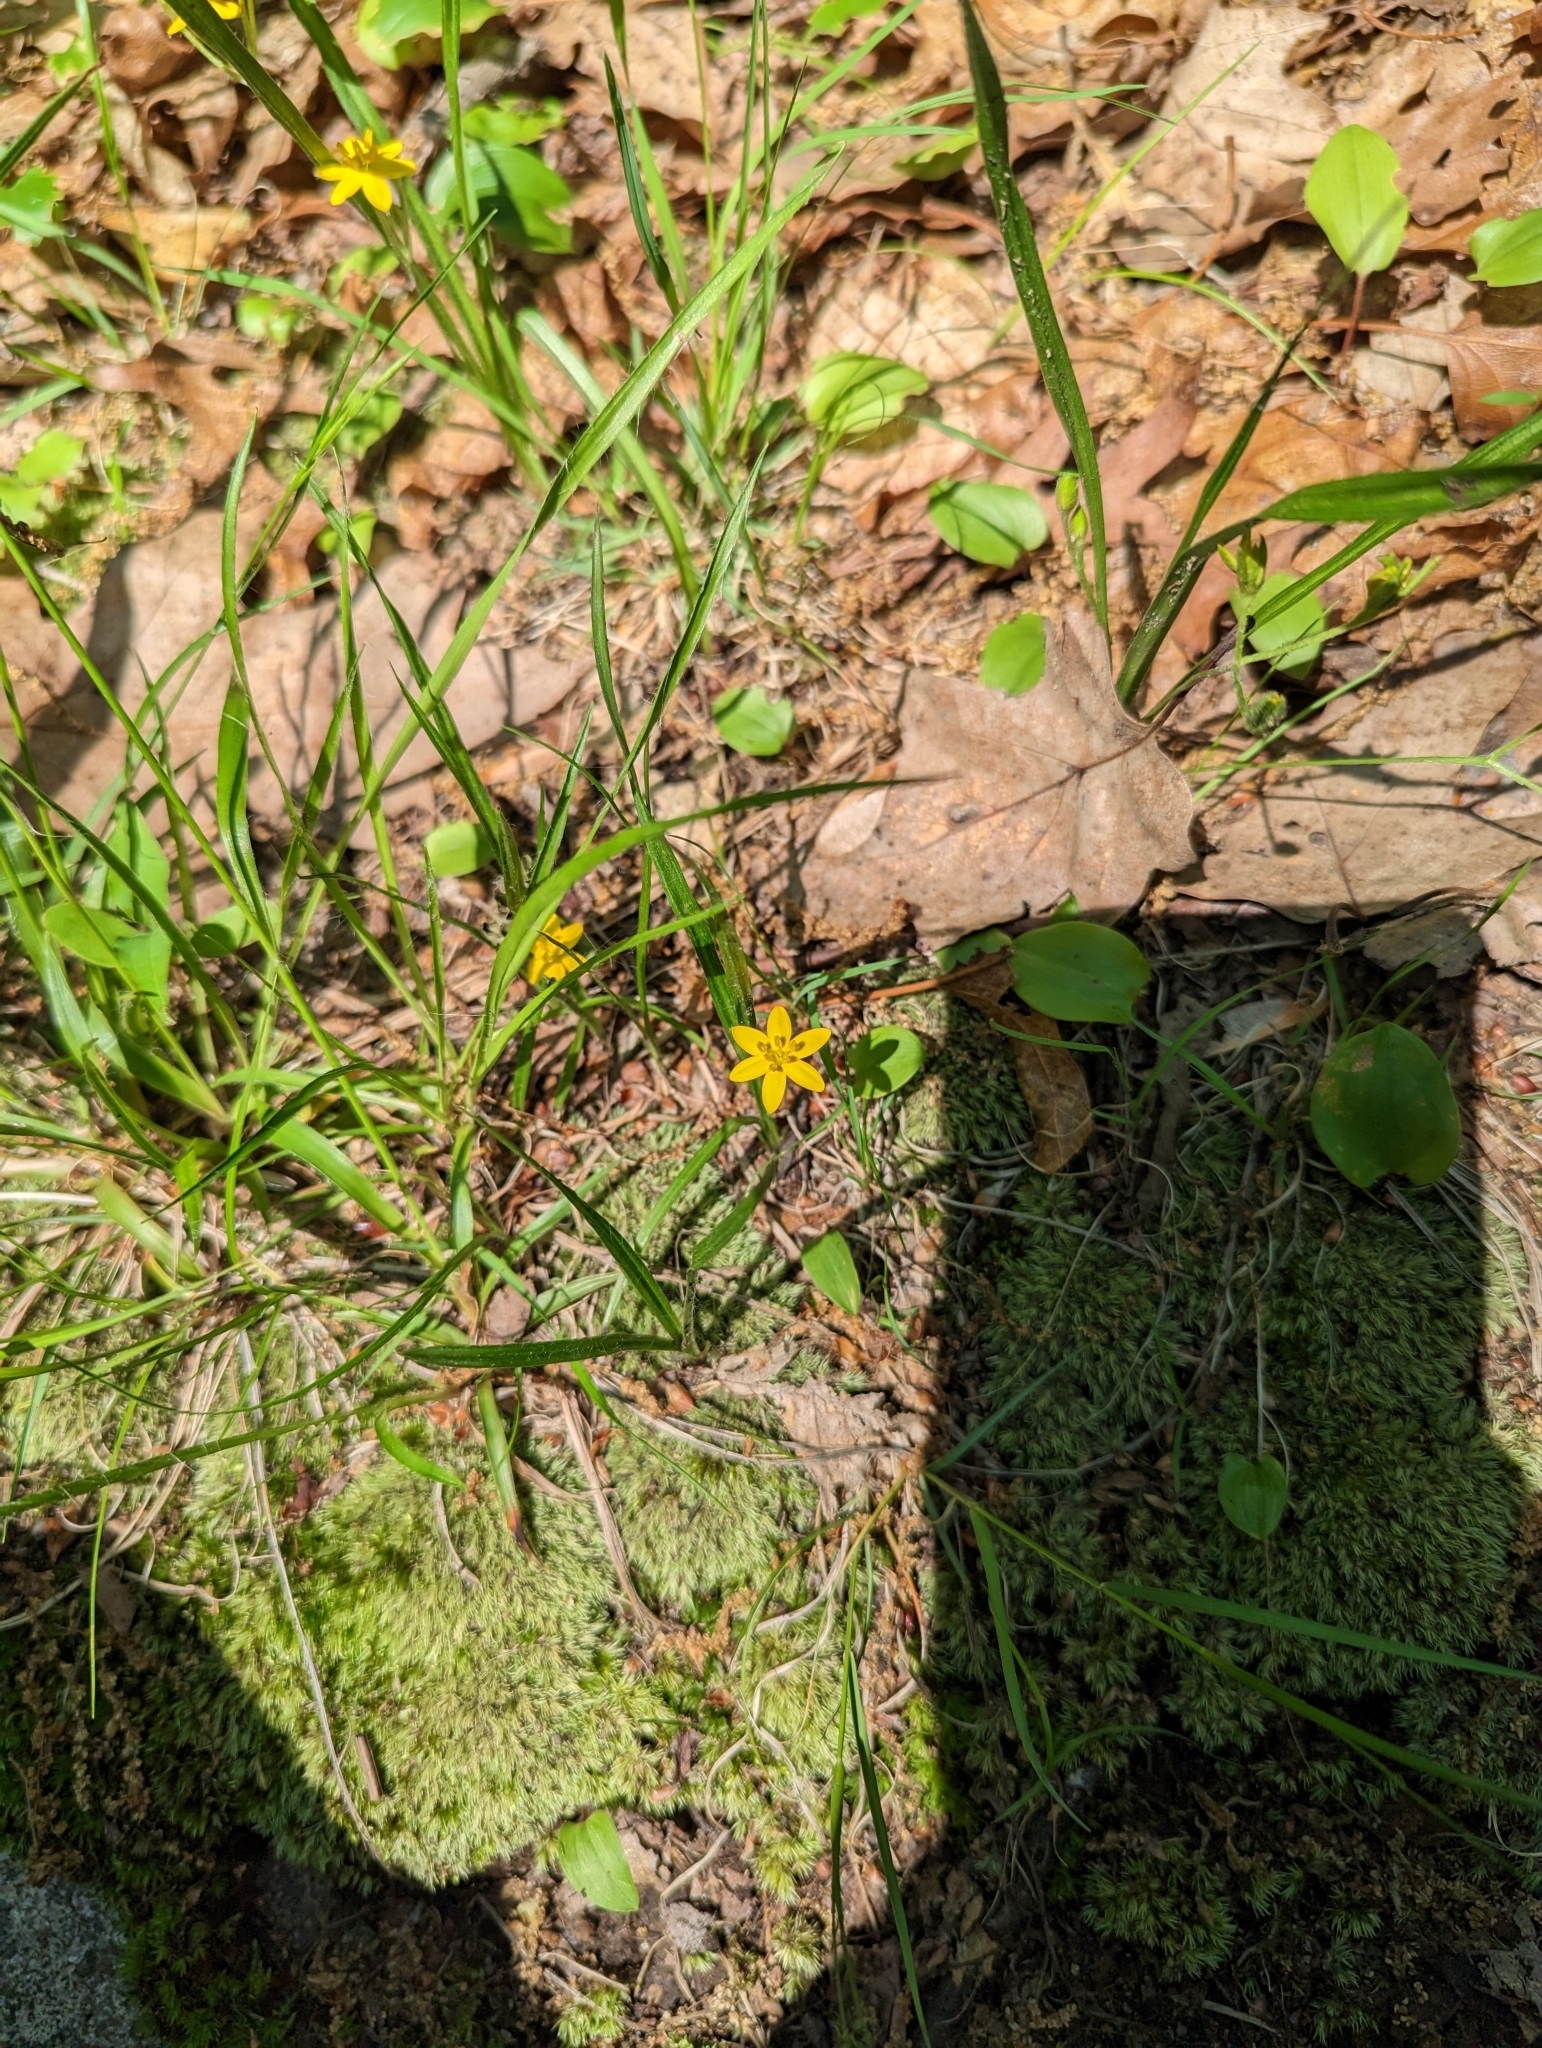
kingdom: Plantae
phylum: Tracheophyta
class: Liliopsida
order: Asparagales
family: Hypoxidaceae
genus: Hypoxis
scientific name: Hypoxis hirsuta
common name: Common goldstar
